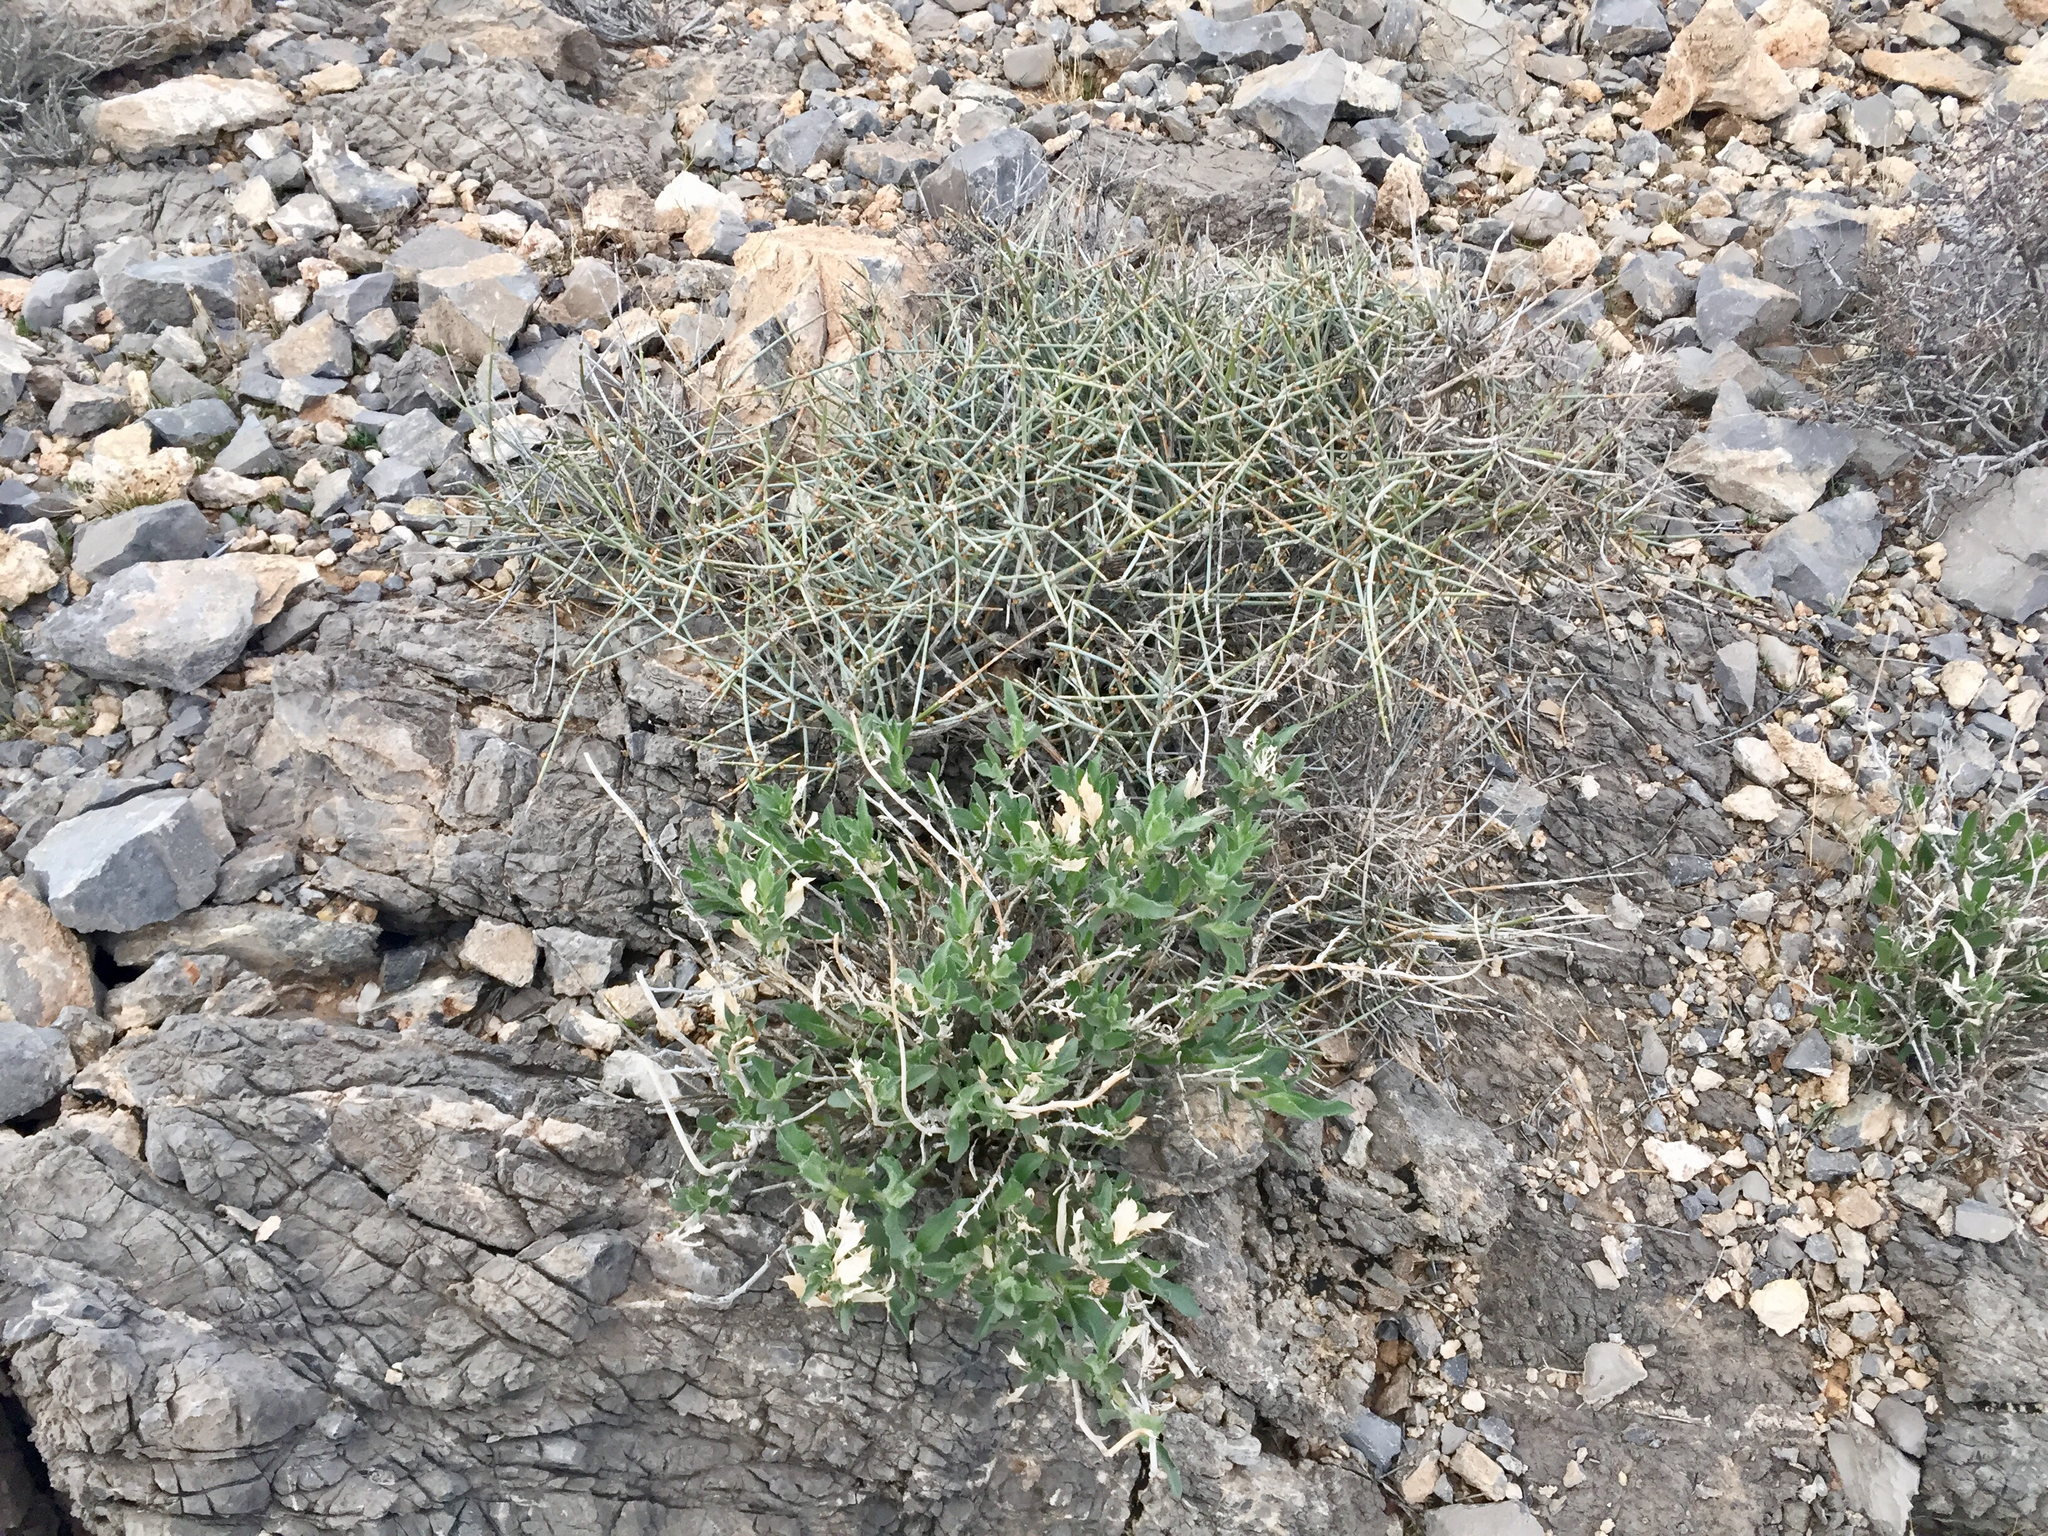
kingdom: Plantae
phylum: Tracheophyta
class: Gnetopsida
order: Ephedrales
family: Ephedraceae
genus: Ephedra
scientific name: Ephedra nevadensis
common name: Gray ephedra
